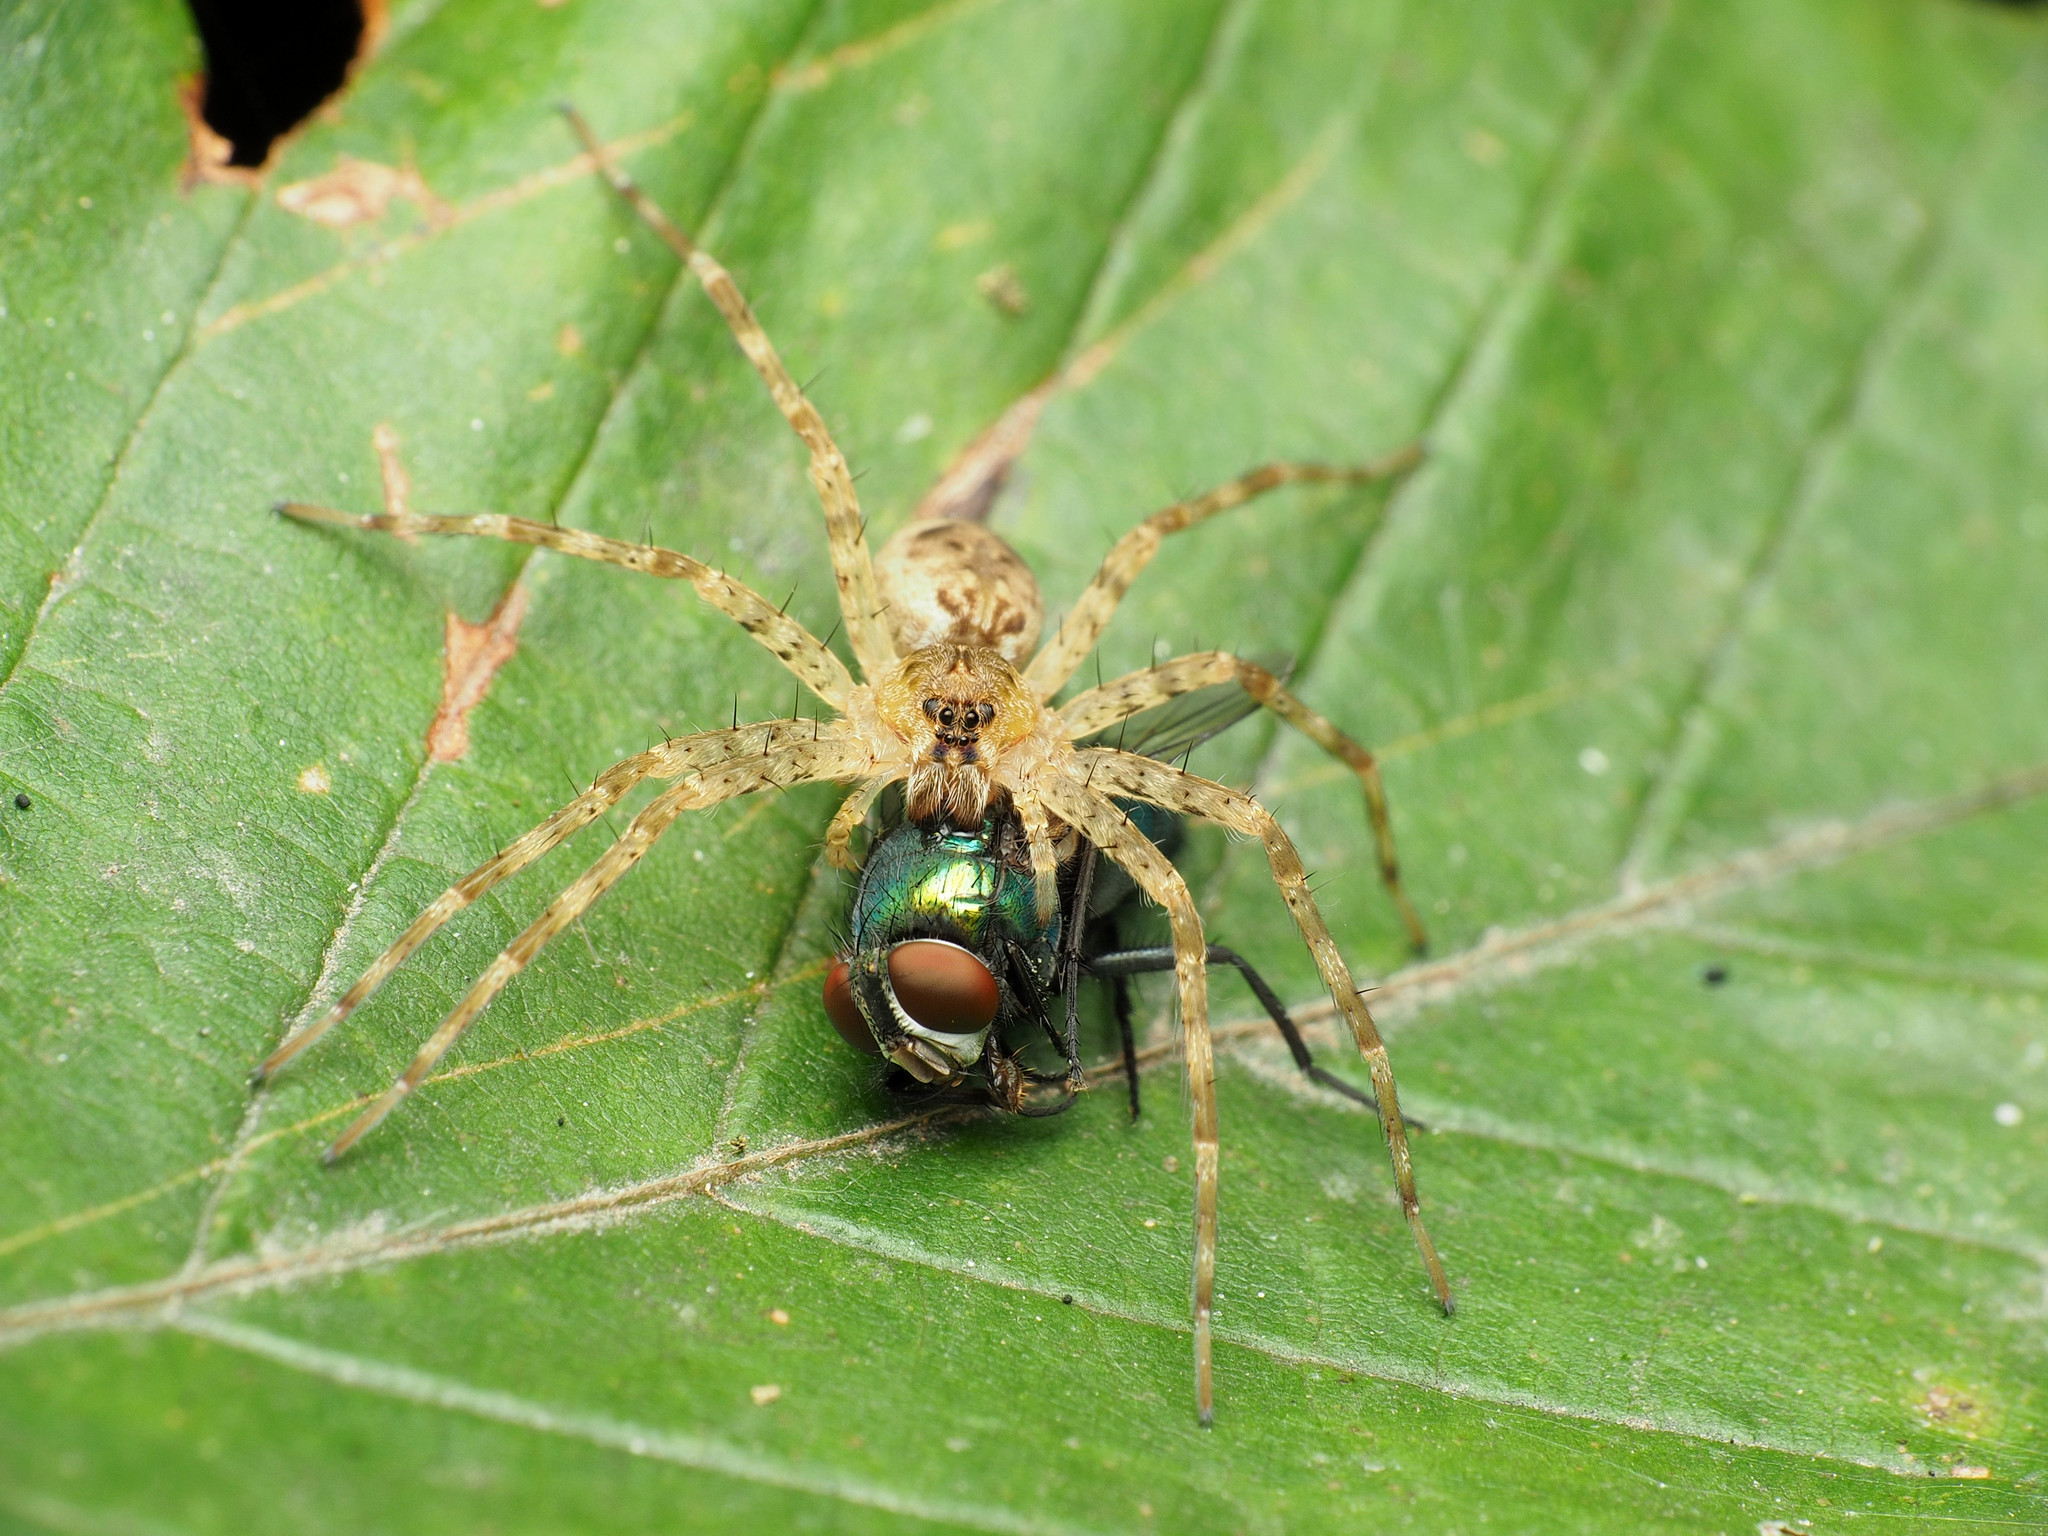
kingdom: Animalia
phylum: Arthropoda
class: Arachnida
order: Araneae
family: Pisauridae
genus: Dolomedes
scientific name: Dolomedes tenebrosus
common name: Dark fishing spider
